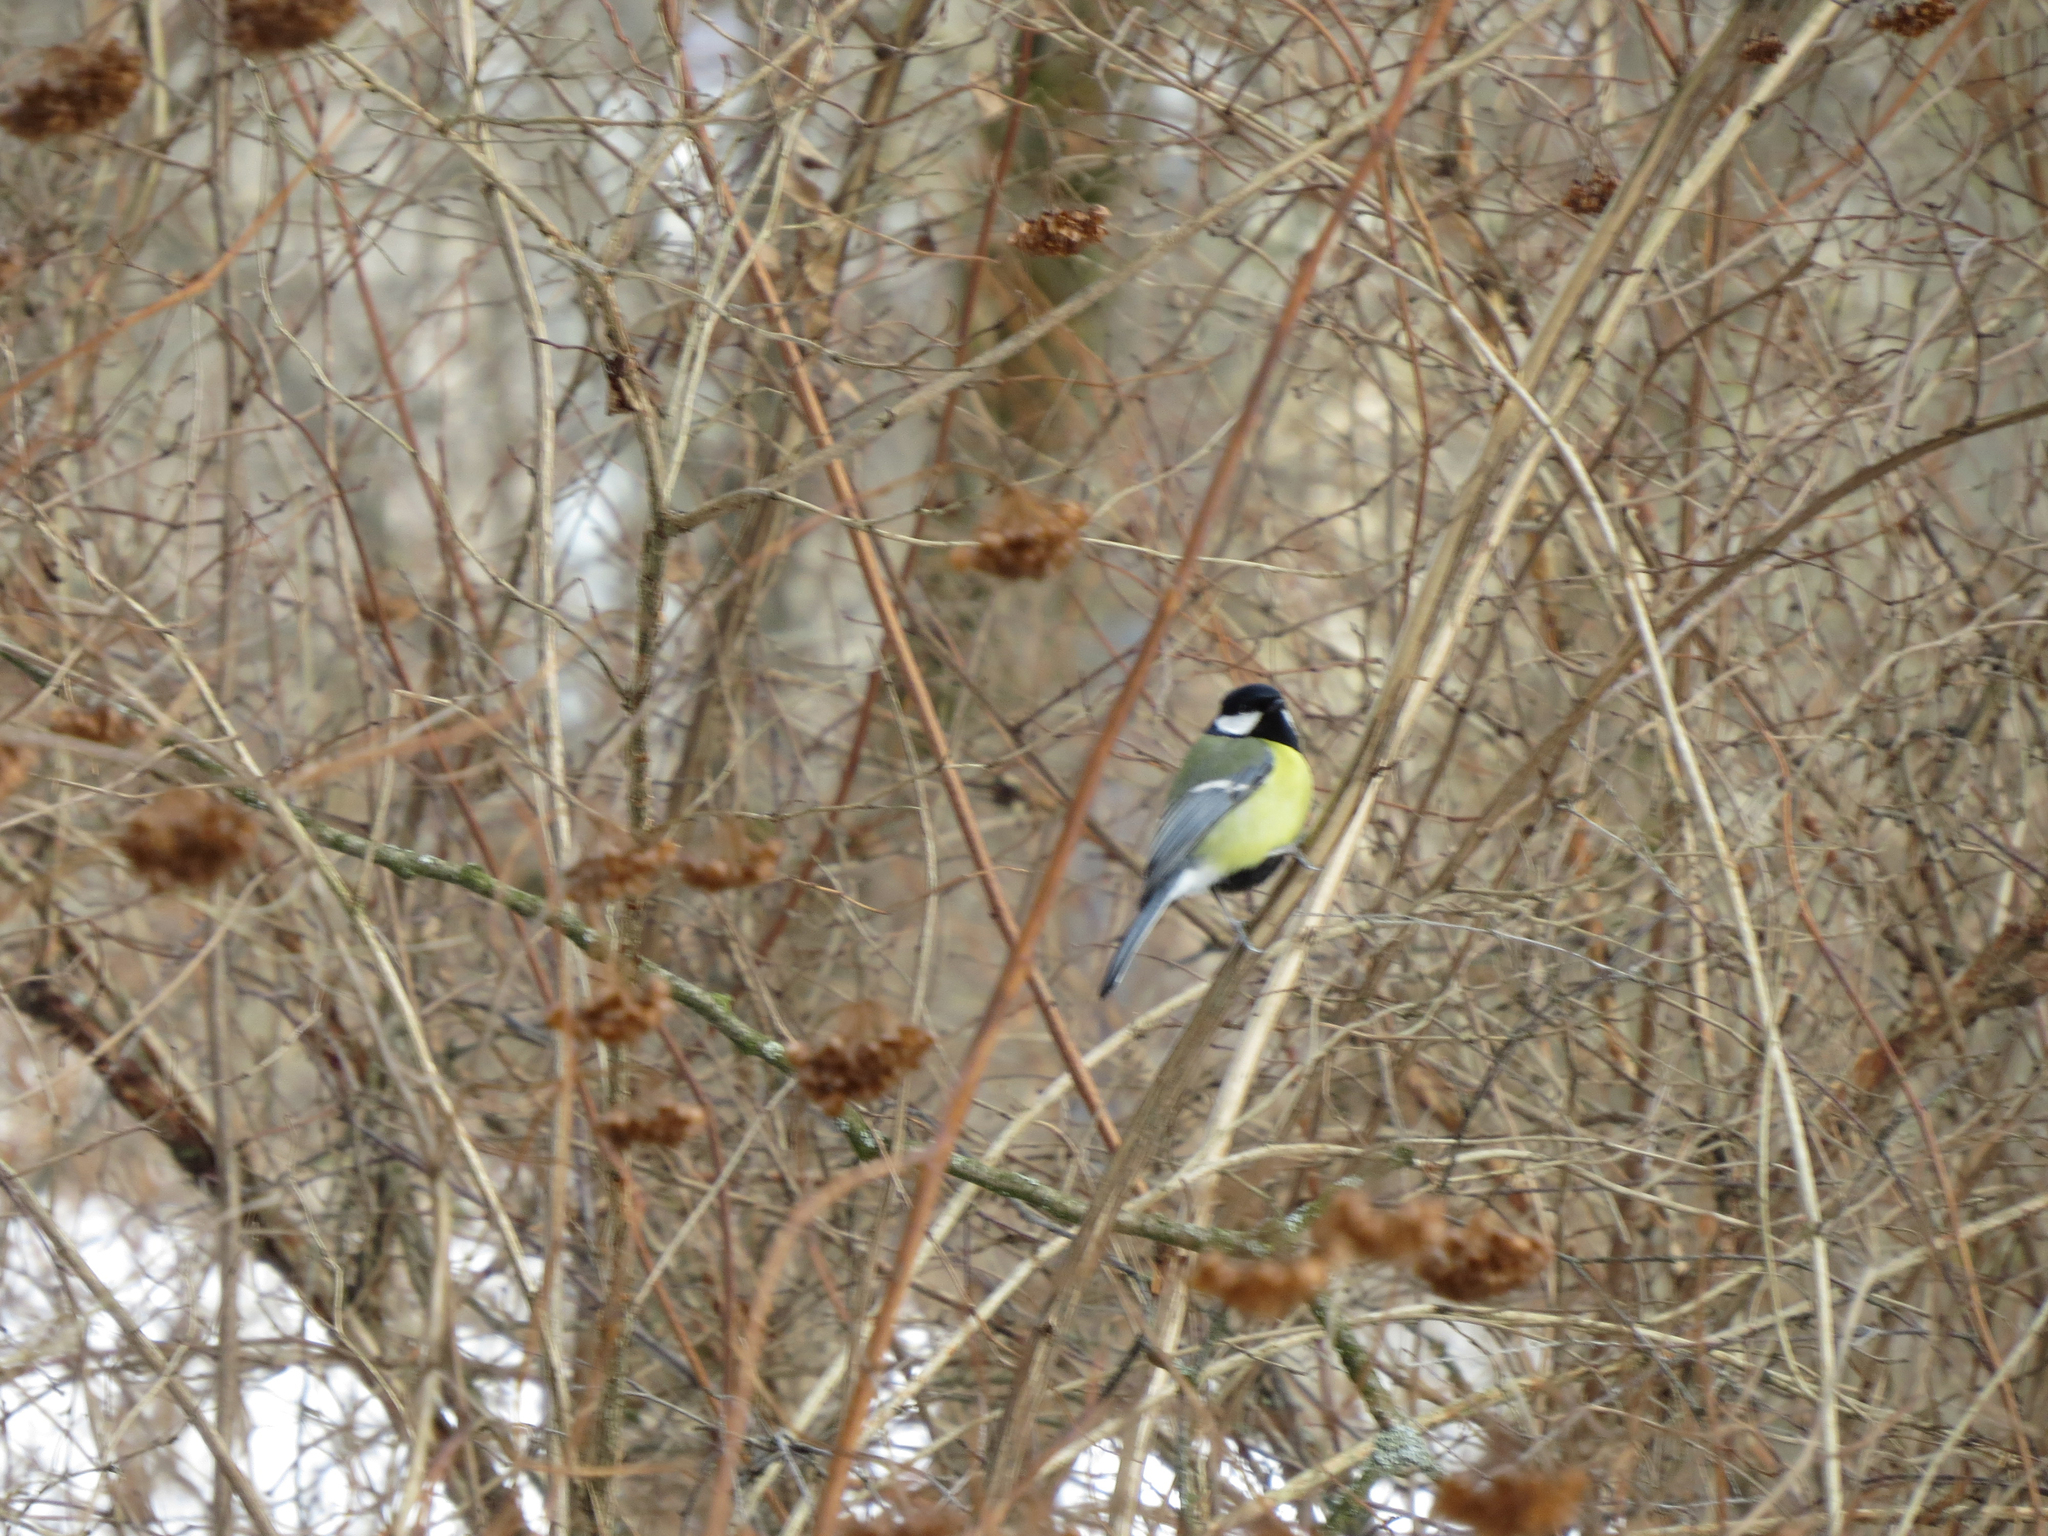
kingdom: Animalia
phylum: Chordata
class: Aves
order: Passeriformes
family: Paridae
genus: Parus
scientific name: Parus major
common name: Great tit
